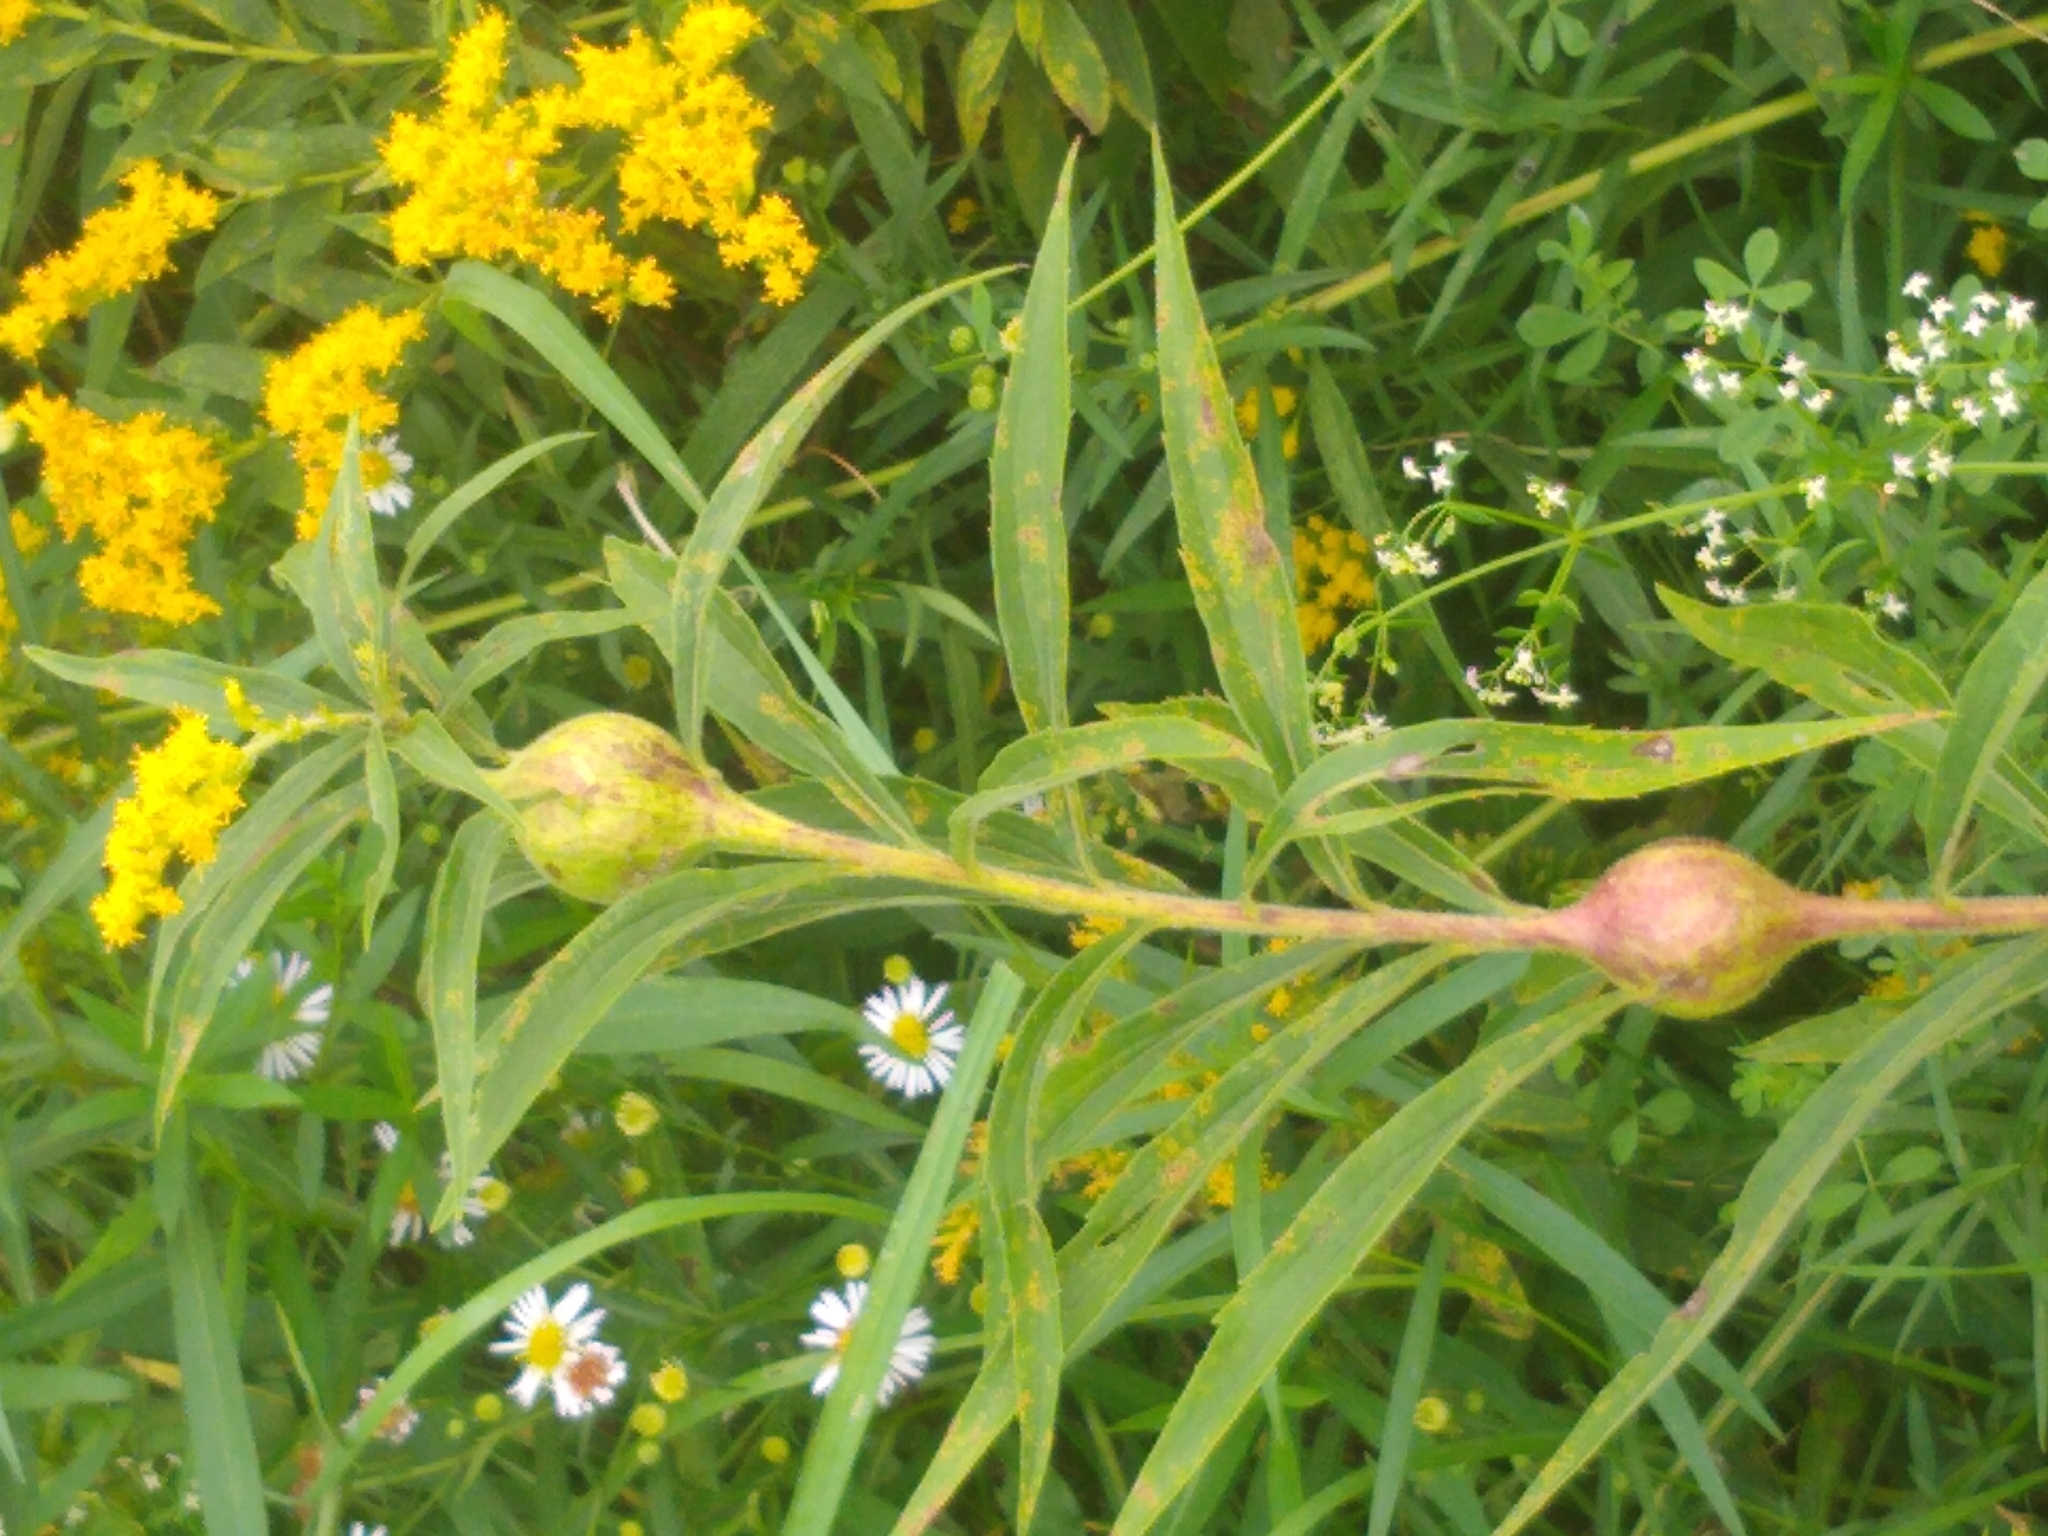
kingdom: Animalia
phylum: Arthropoda
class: Insecta
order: Diptera
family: Tephritidae
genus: Eurosta
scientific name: Eurosta solidaginis
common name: Goldenrod gall fly
